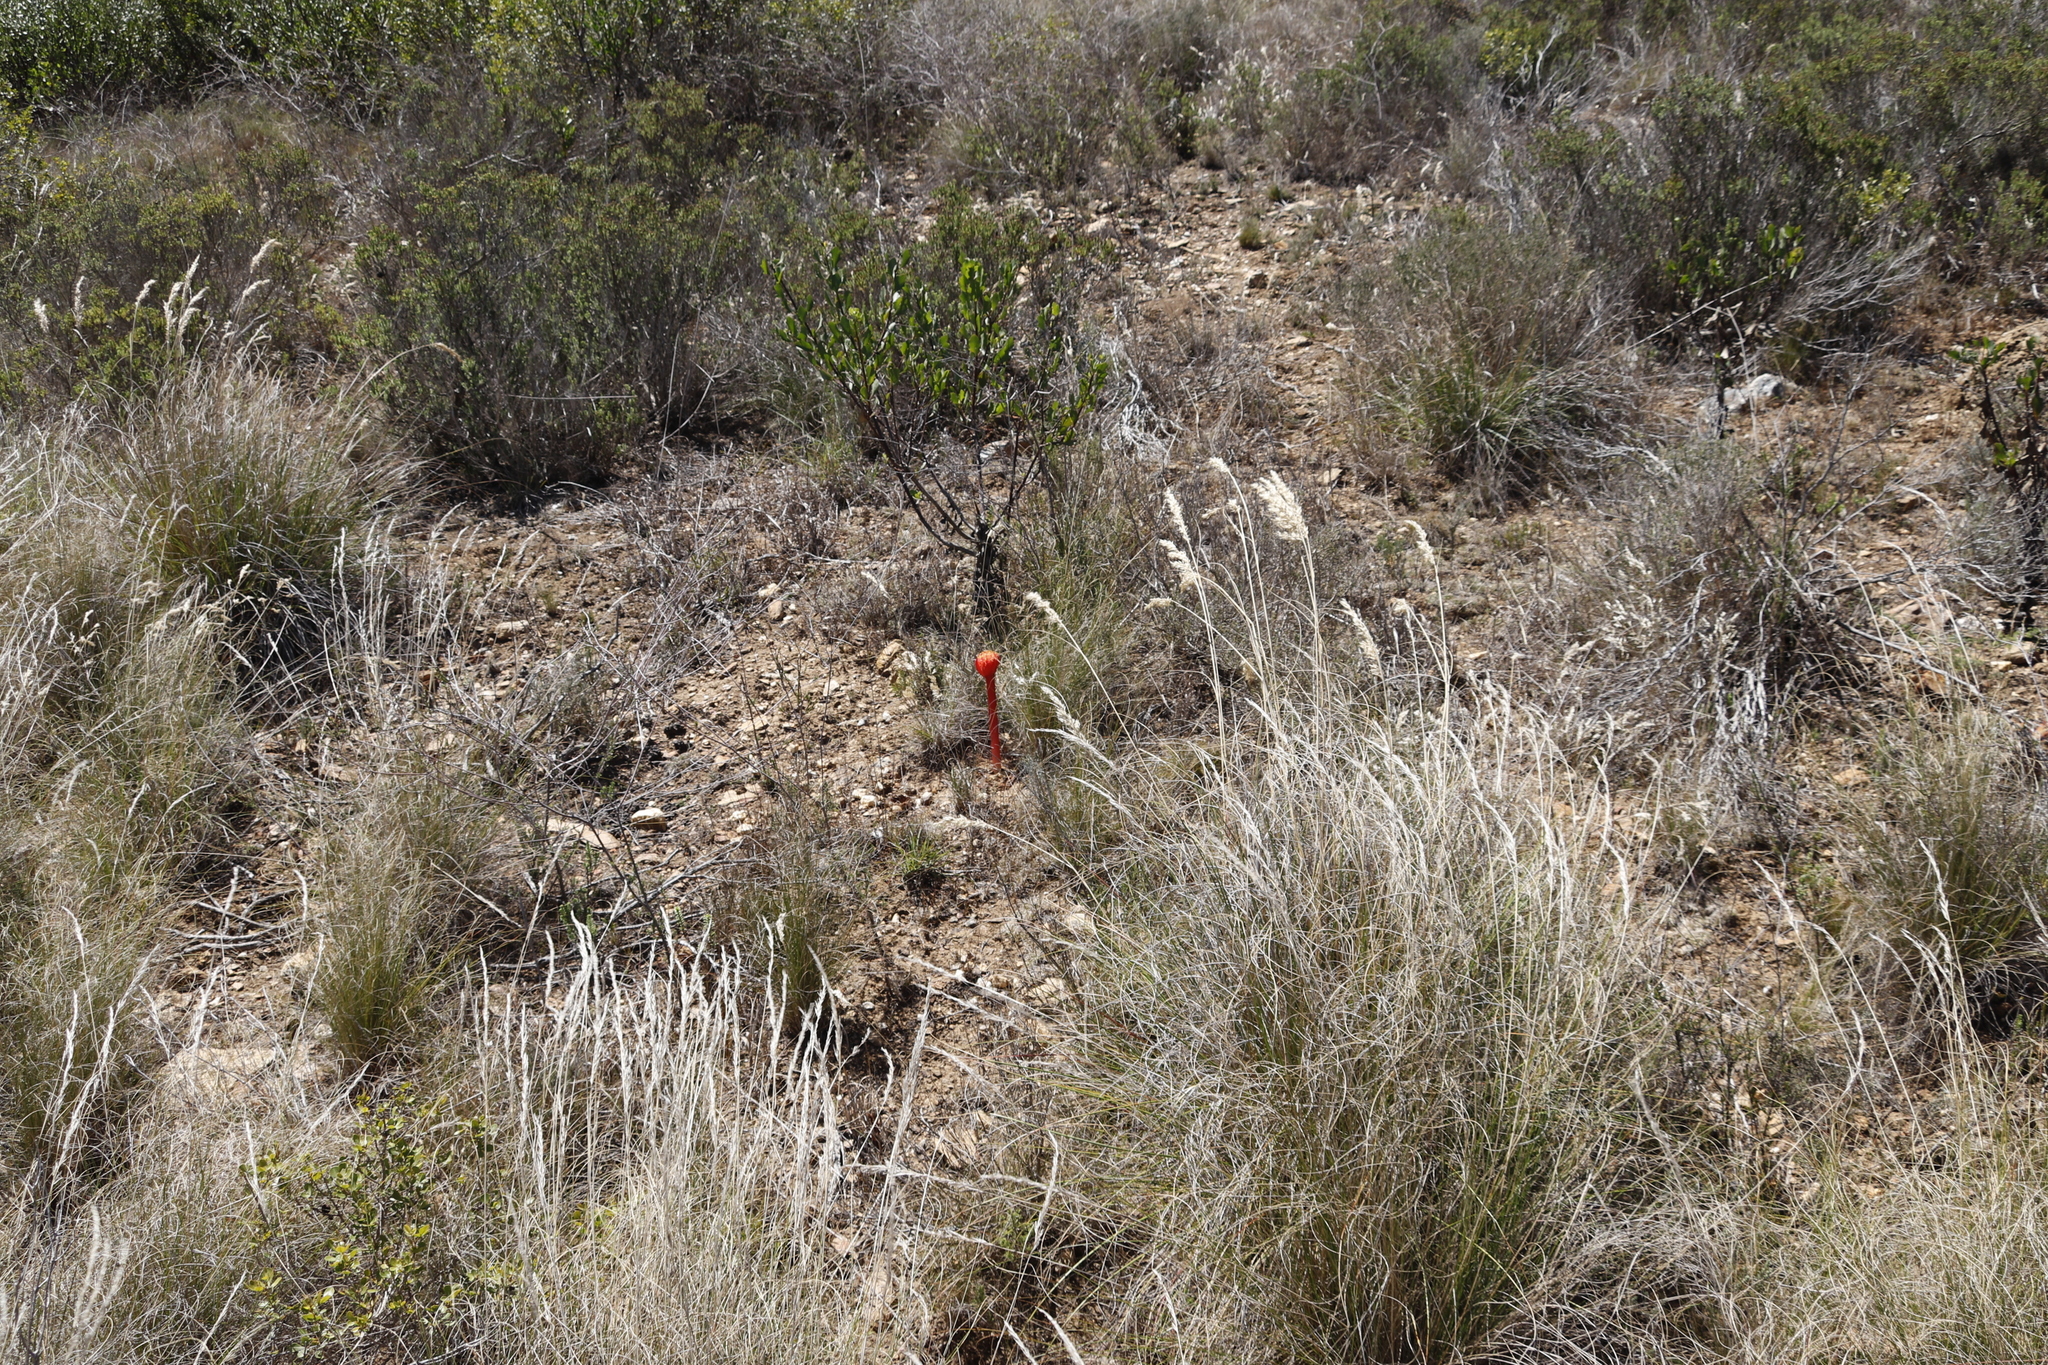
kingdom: Plantae
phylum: Tracheophyta
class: Liliopsida
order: Asparagales
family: Amaryllidaceae
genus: Haemanthus
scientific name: Haemanthus sanguineus
